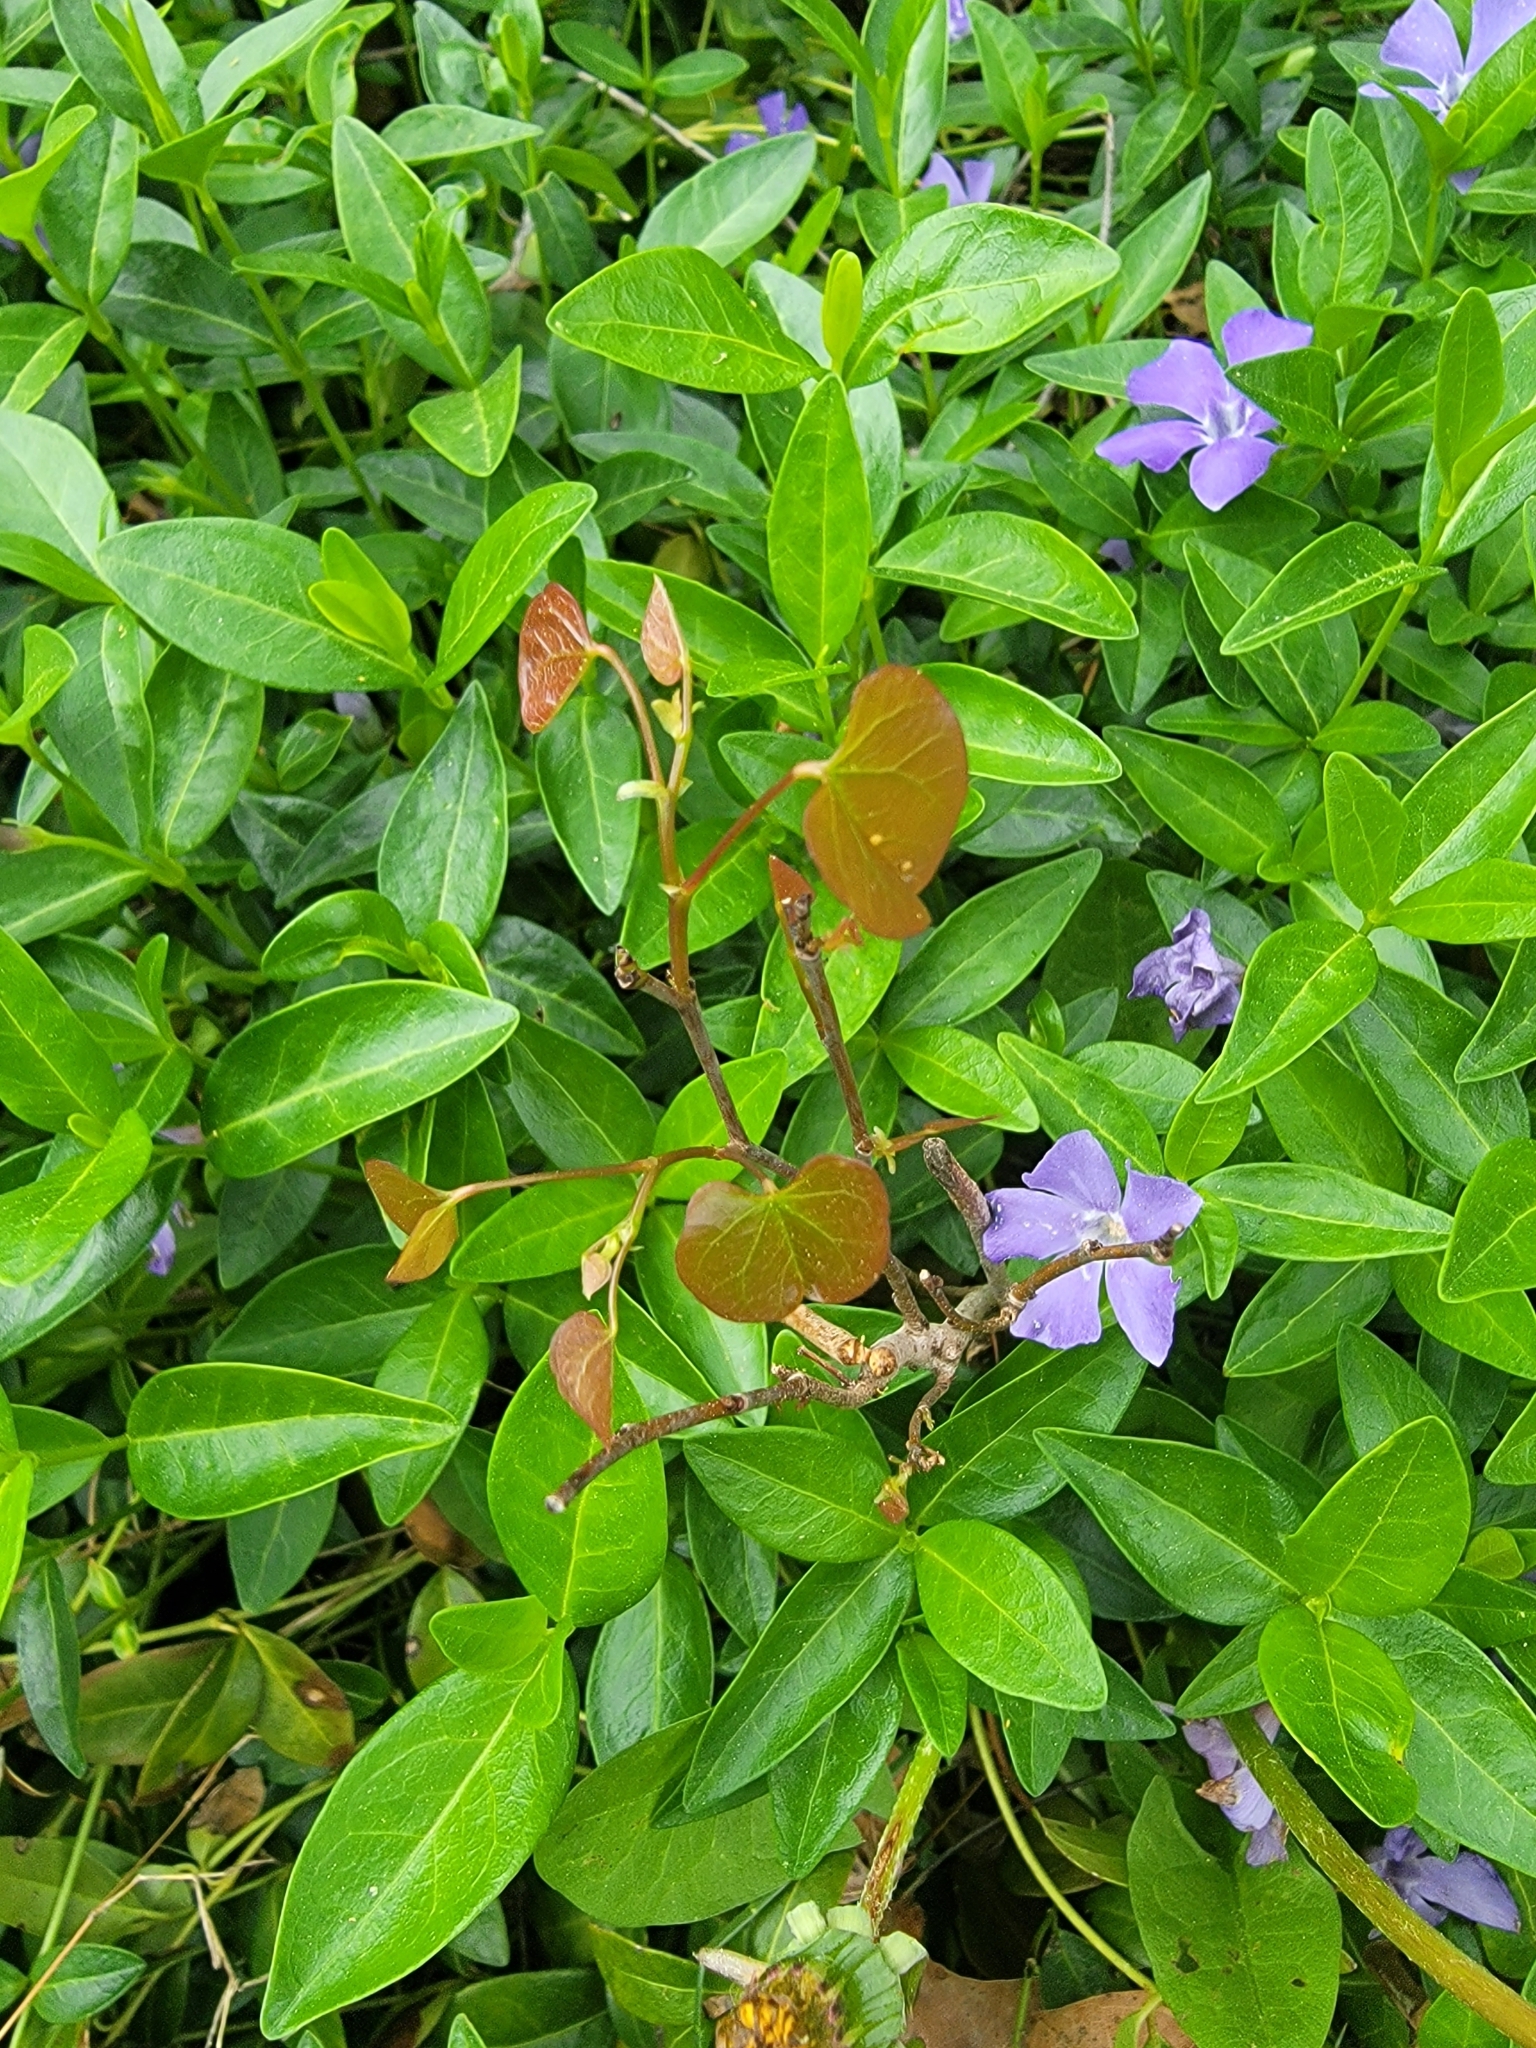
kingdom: Plantae
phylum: Tracheophyta
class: Magnoliopsida
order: Fabales
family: Fabaceae
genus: Cercis
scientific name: Cercis canadensis
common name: Eastern redbud
